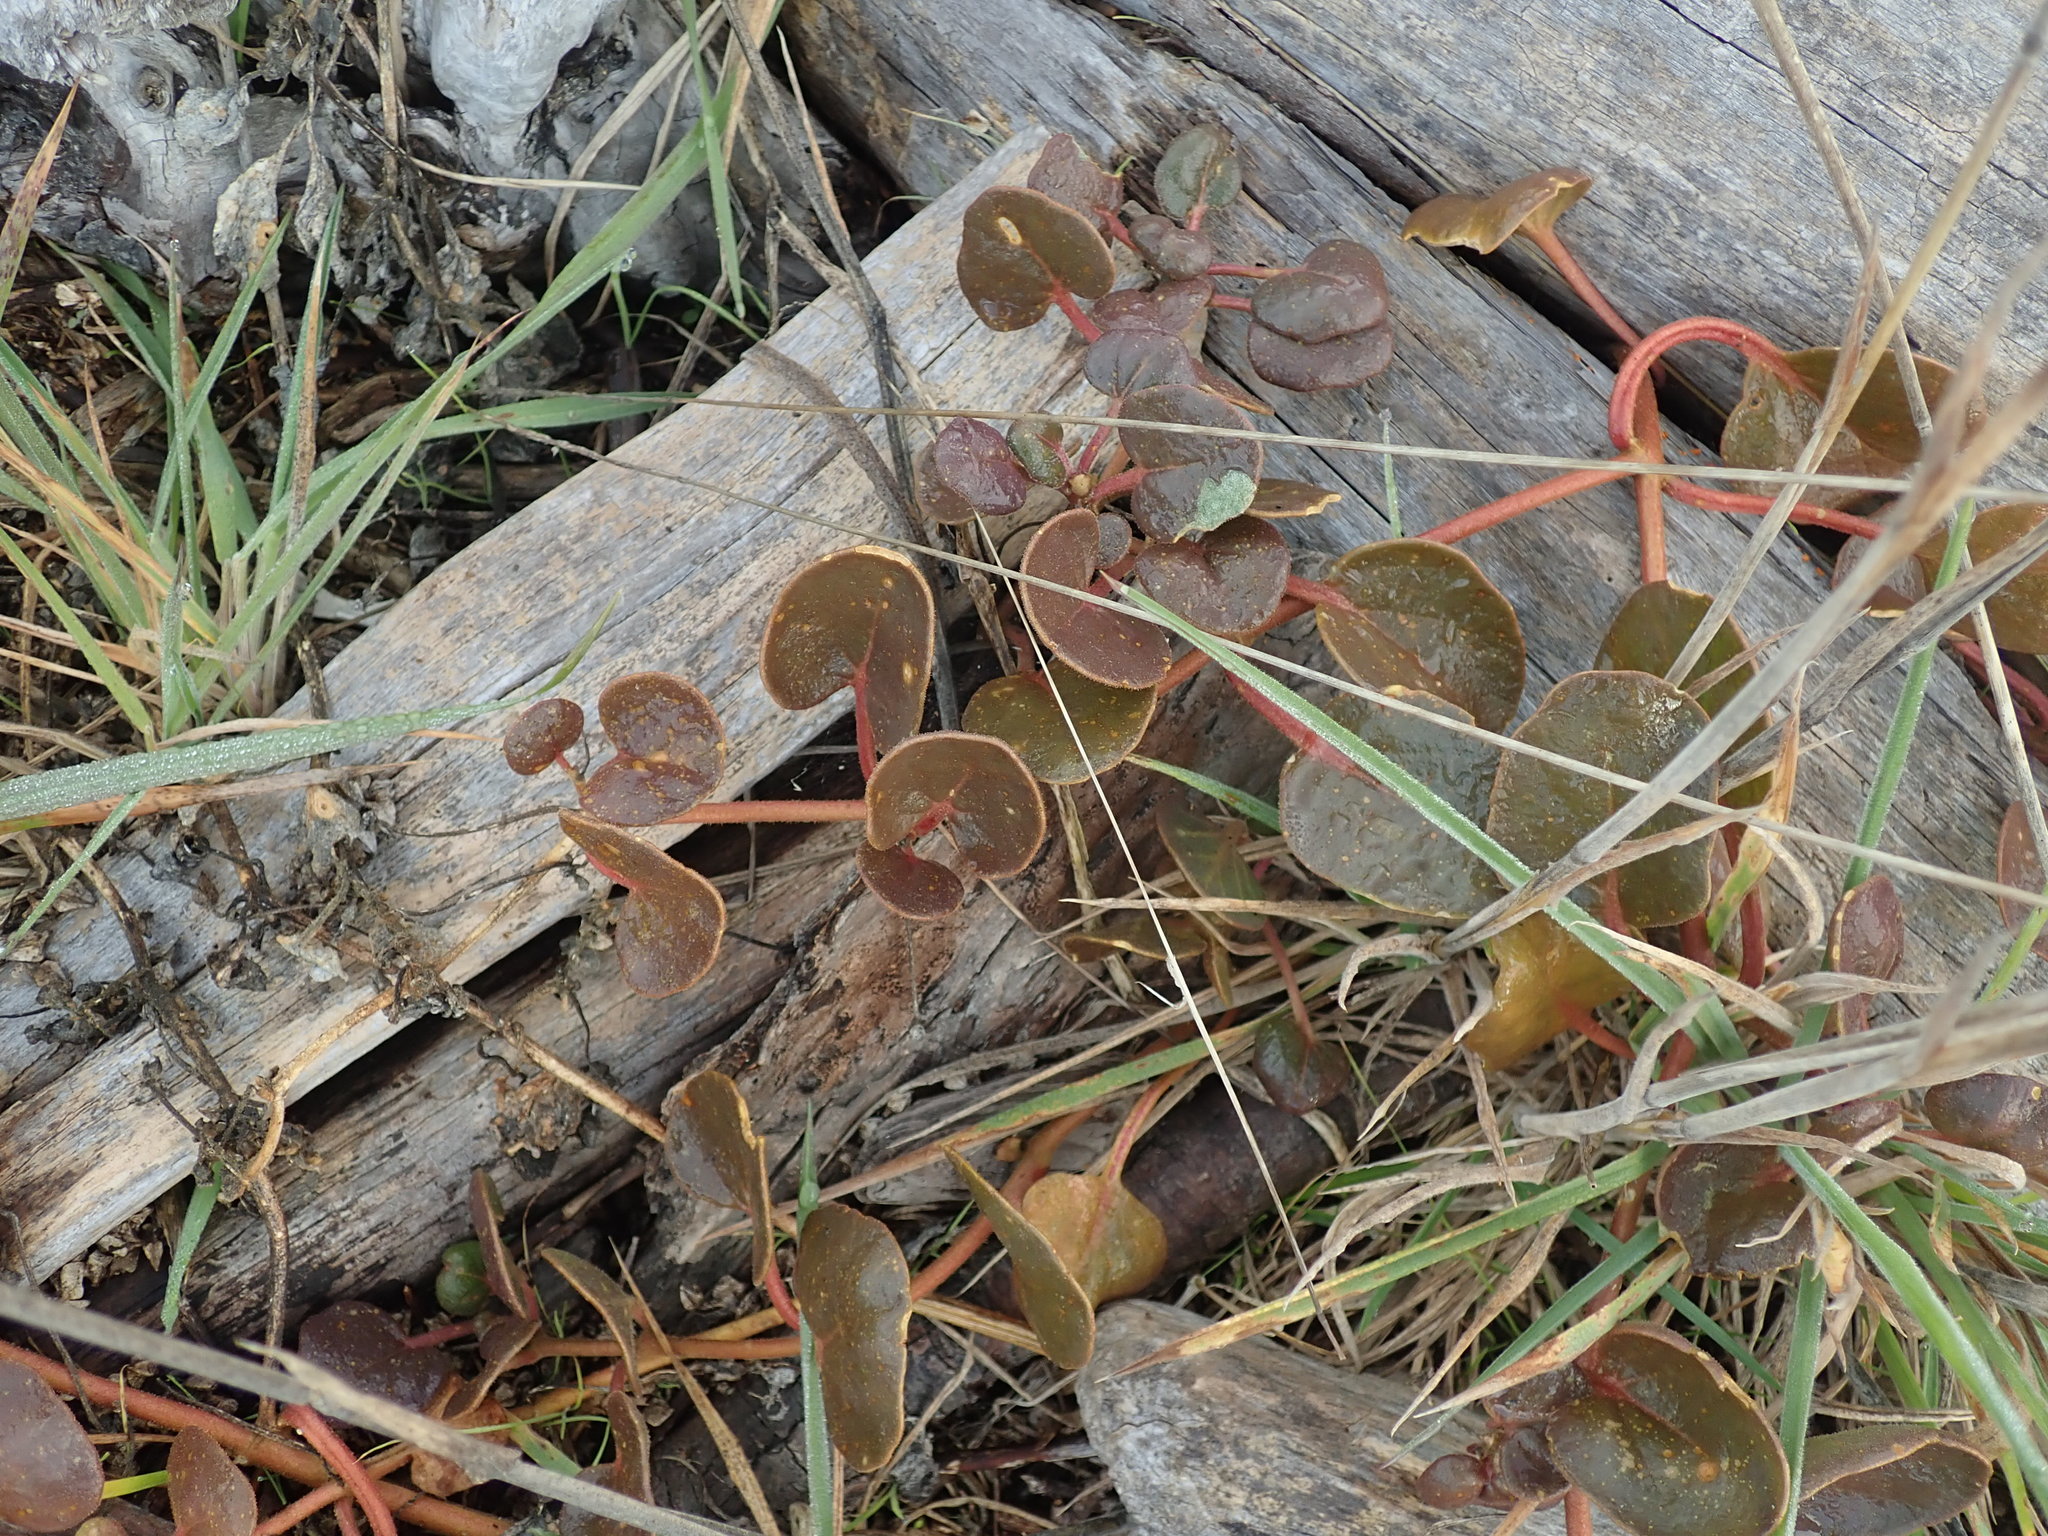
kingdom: Plantae
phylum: Tracheophyta
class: Magnoliopsida
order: Caryophyllales
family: Nyctaginaceae
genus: Abronia
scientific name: Abronia latifolia
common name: Yellow sand-verbena
